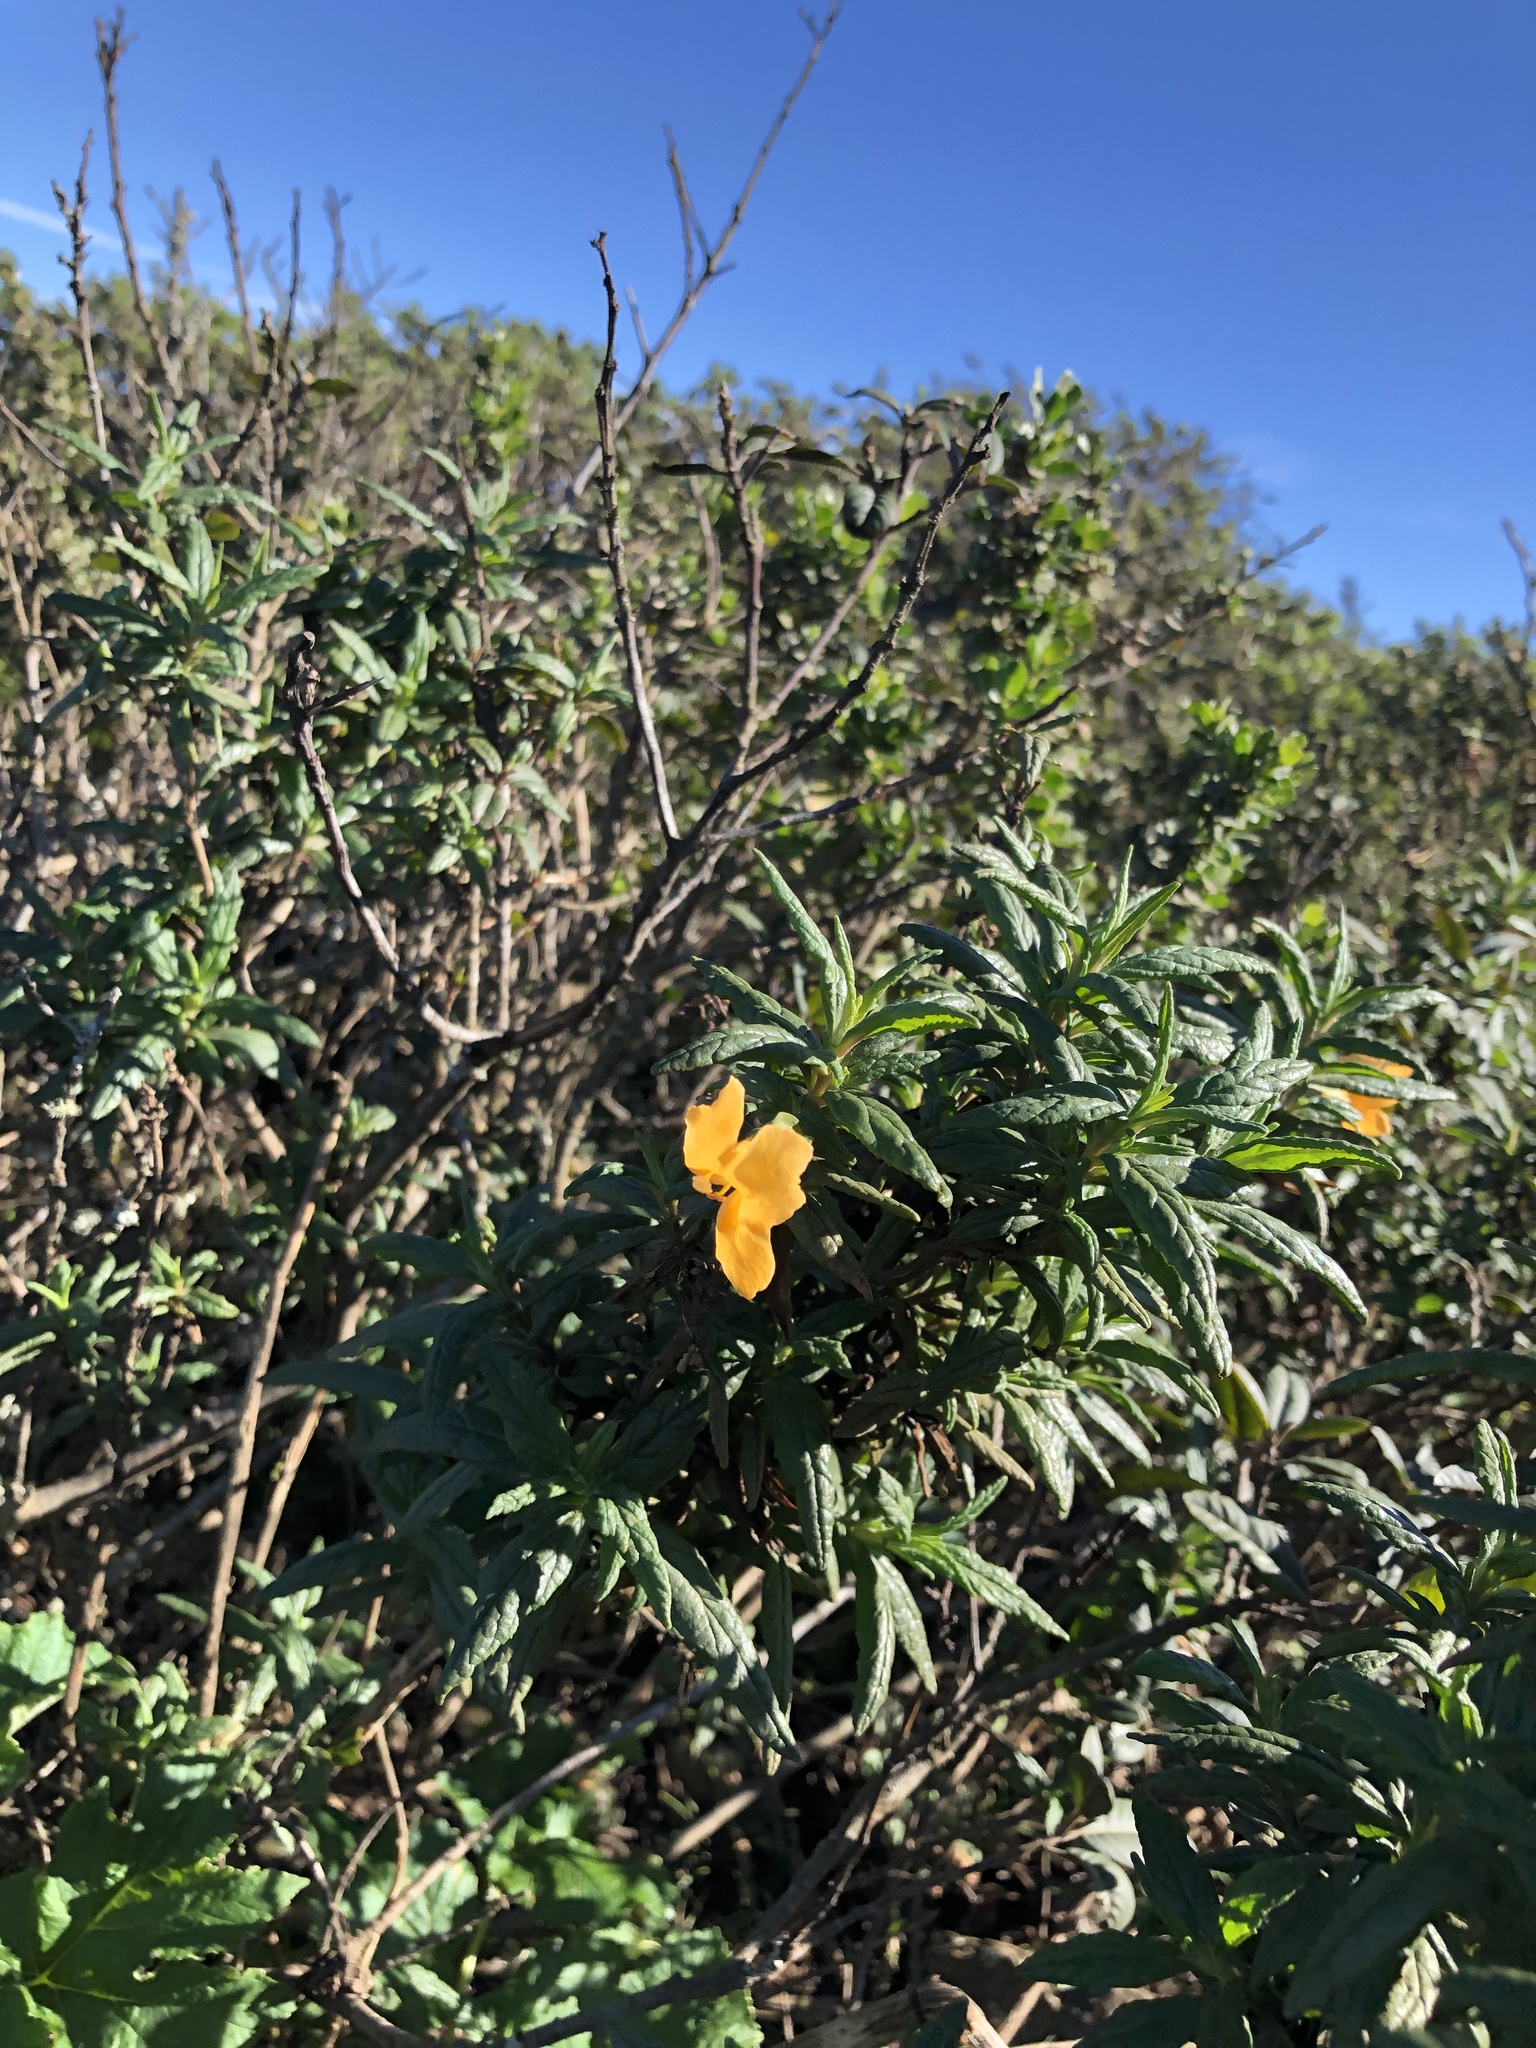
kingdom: Plantae
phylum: Tracheophyta
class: Magnoliopsida
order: Lamiales
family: Phrymaceae
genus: Diplacus
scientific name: Diplacus aurantiacus
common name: Bush monkey-flower
